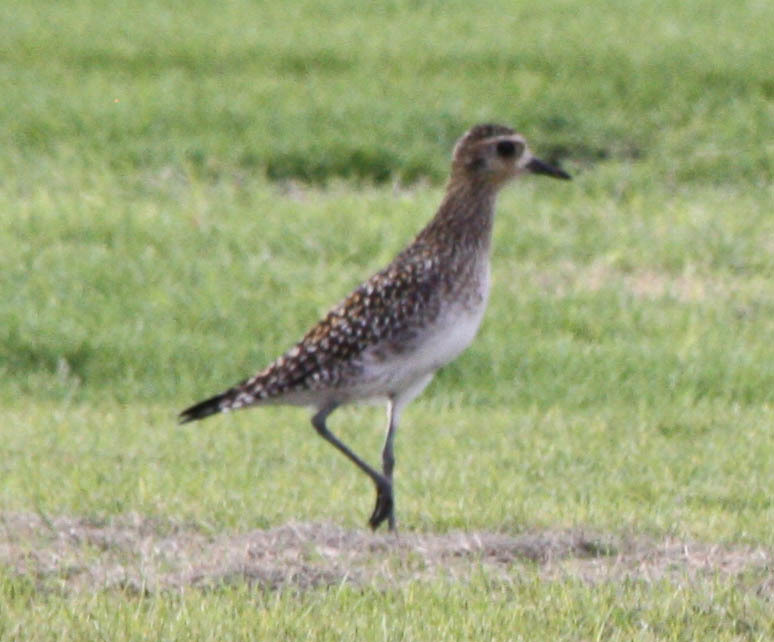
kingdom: Animalia
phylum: Chordata
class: Aves
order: Charadriiformes
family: Charadriidae
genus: Pluvialis
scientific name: Pluvialis fulva
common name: Pacific golden plover
